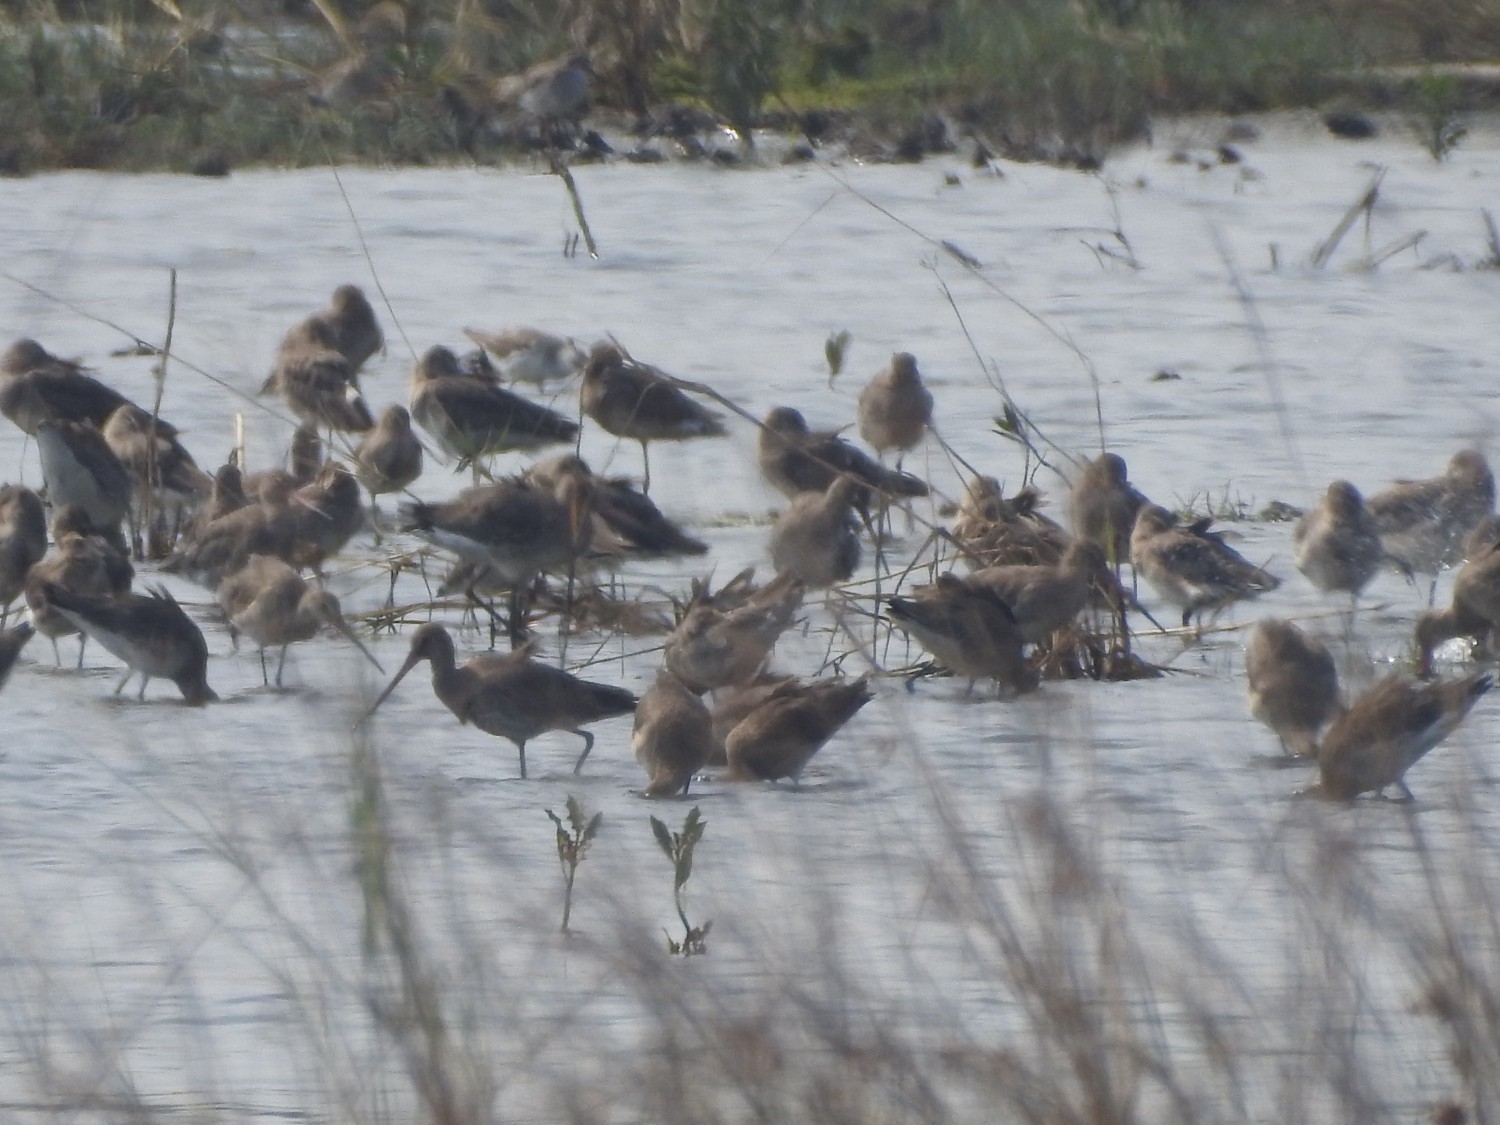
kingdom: Animalia
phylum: Chordata
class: Aves
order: Charadriiformes
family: Scolopacidae
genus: Limosa
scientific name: Limosa limosa
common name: Black-tailed godwit
